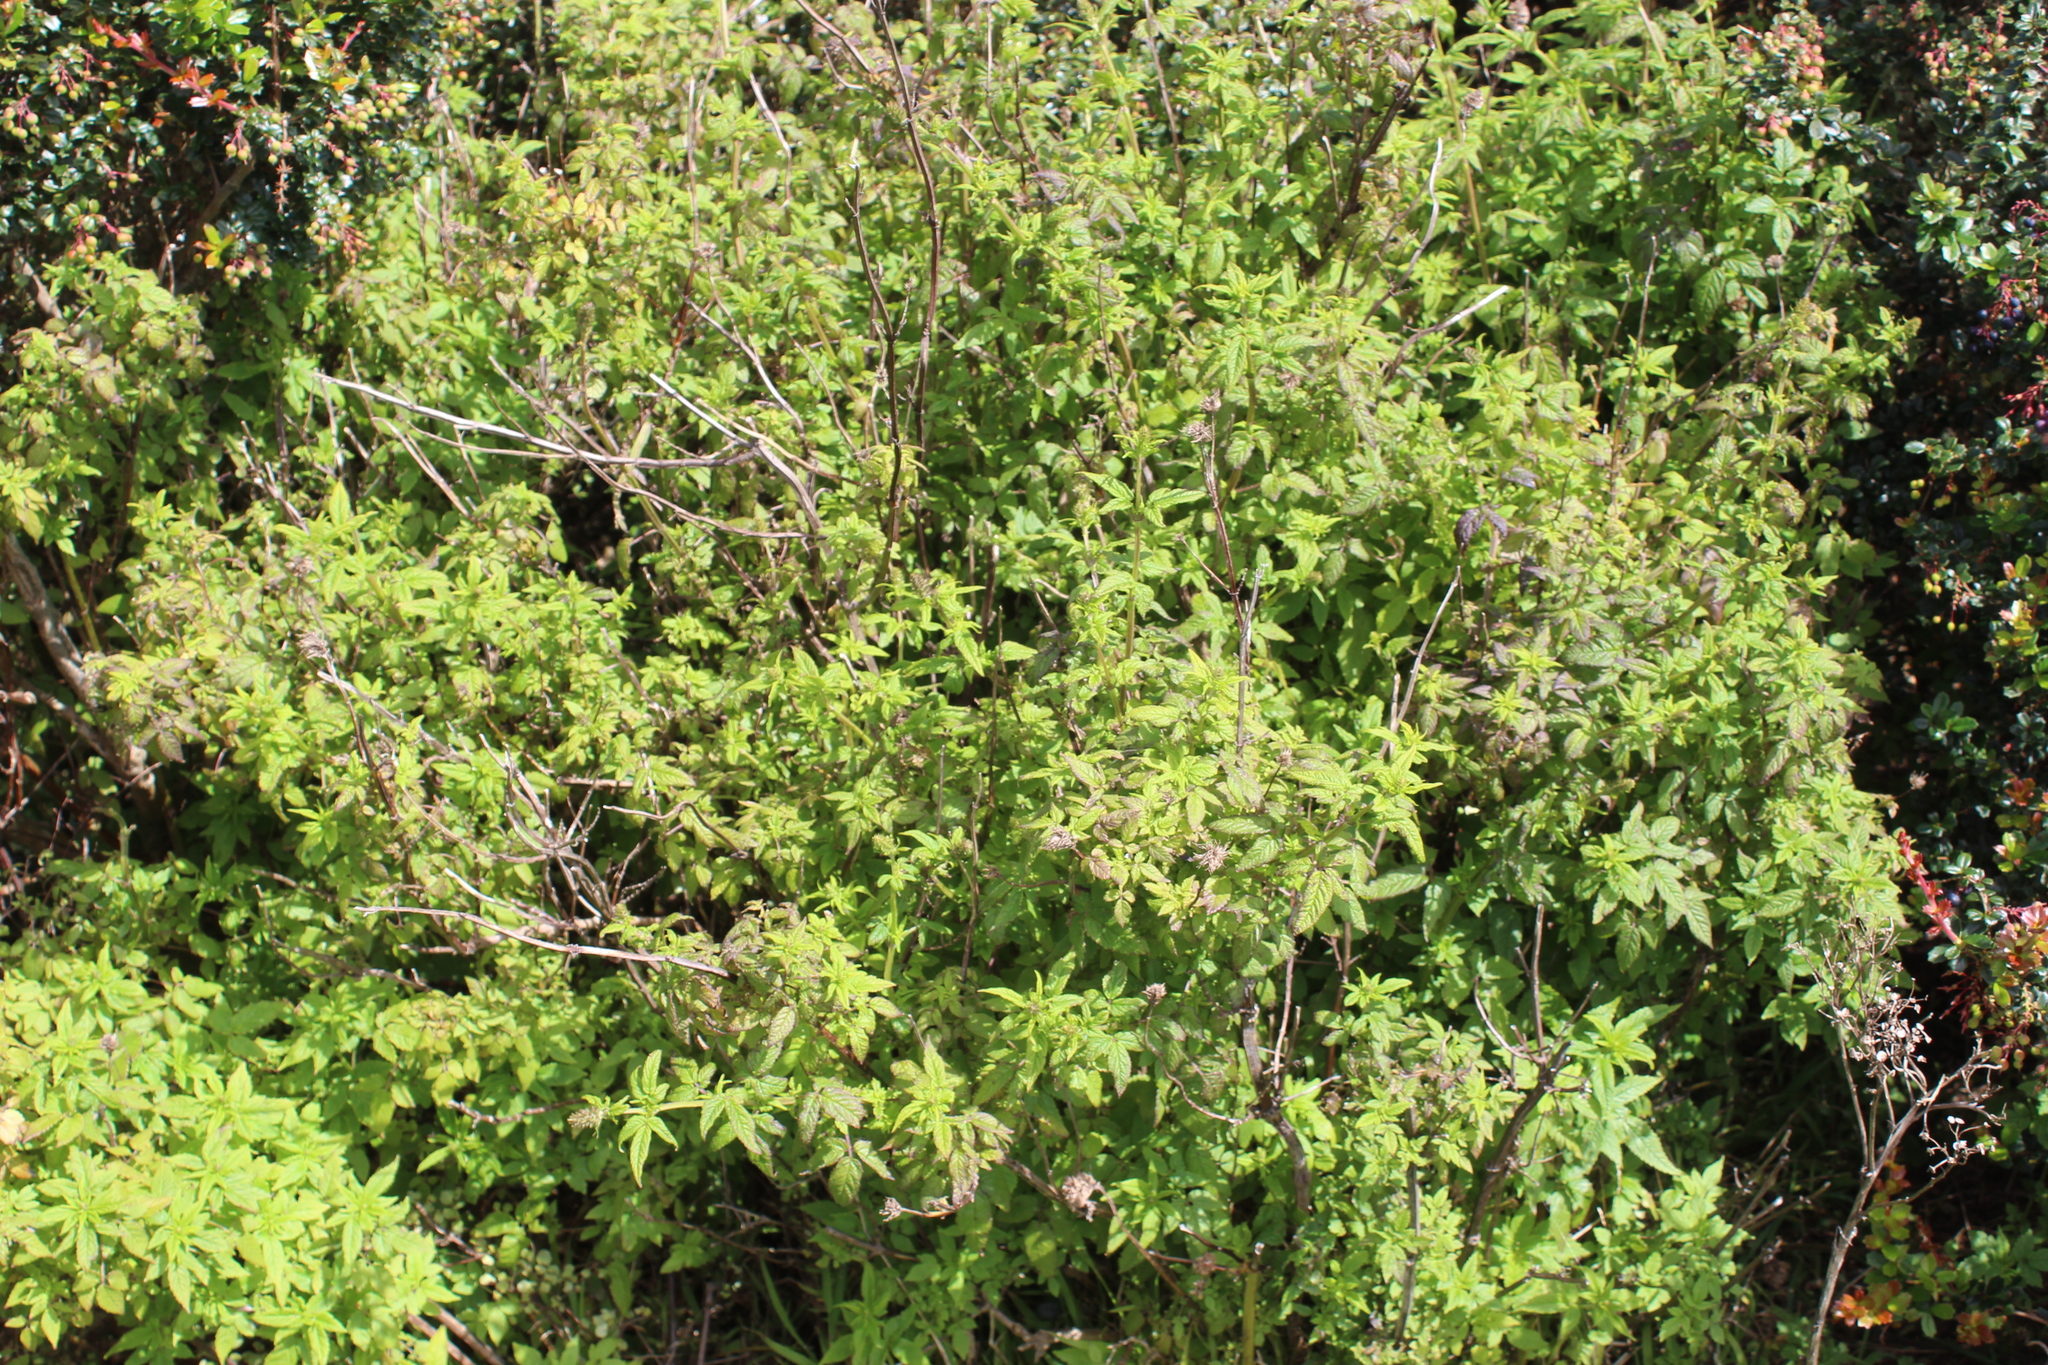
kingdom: Plantae
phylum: Tracheophyta
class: Magnoliopsida
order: Lamiales
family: Lamiaceae
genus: Cedronella
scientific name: Cedronella canariensis
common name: Canary islands balm
